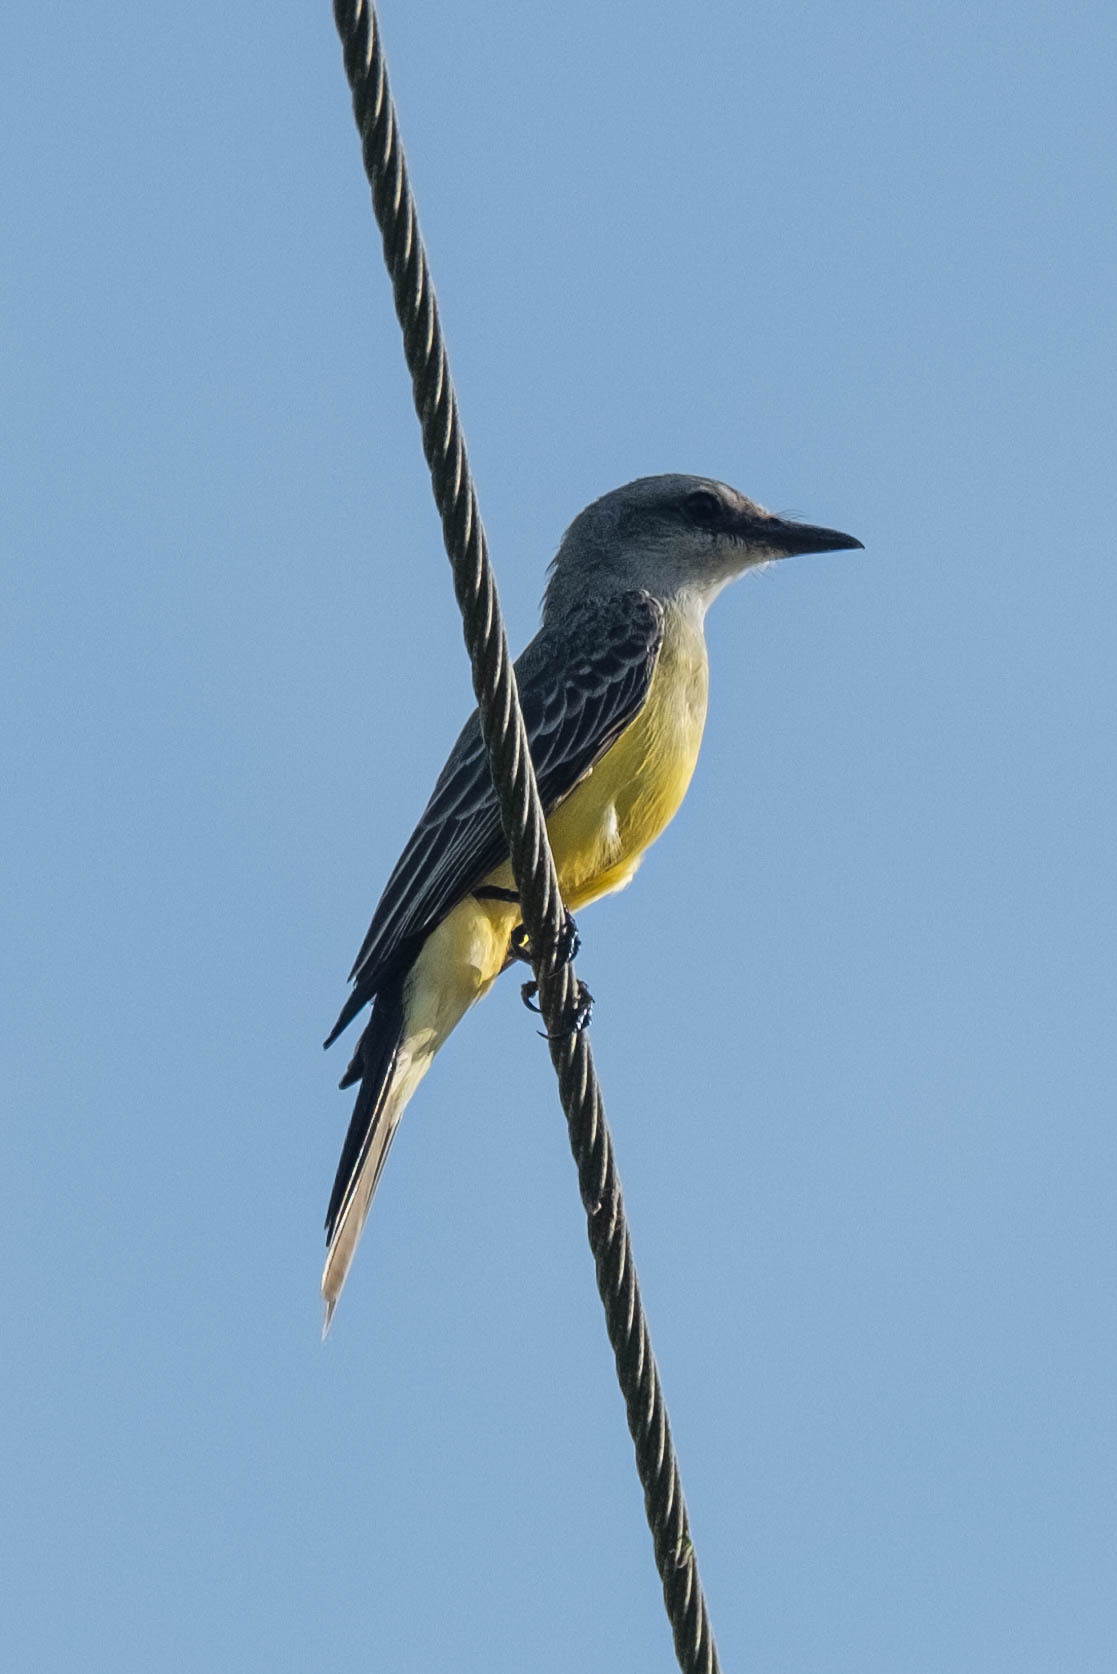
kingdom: Animalia
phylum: Chordata
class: Aves
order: Passeriformes
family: Tyrannidae
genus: Tyrannus
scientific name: Tyrannus melancholicus
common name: Tropical kingbird
